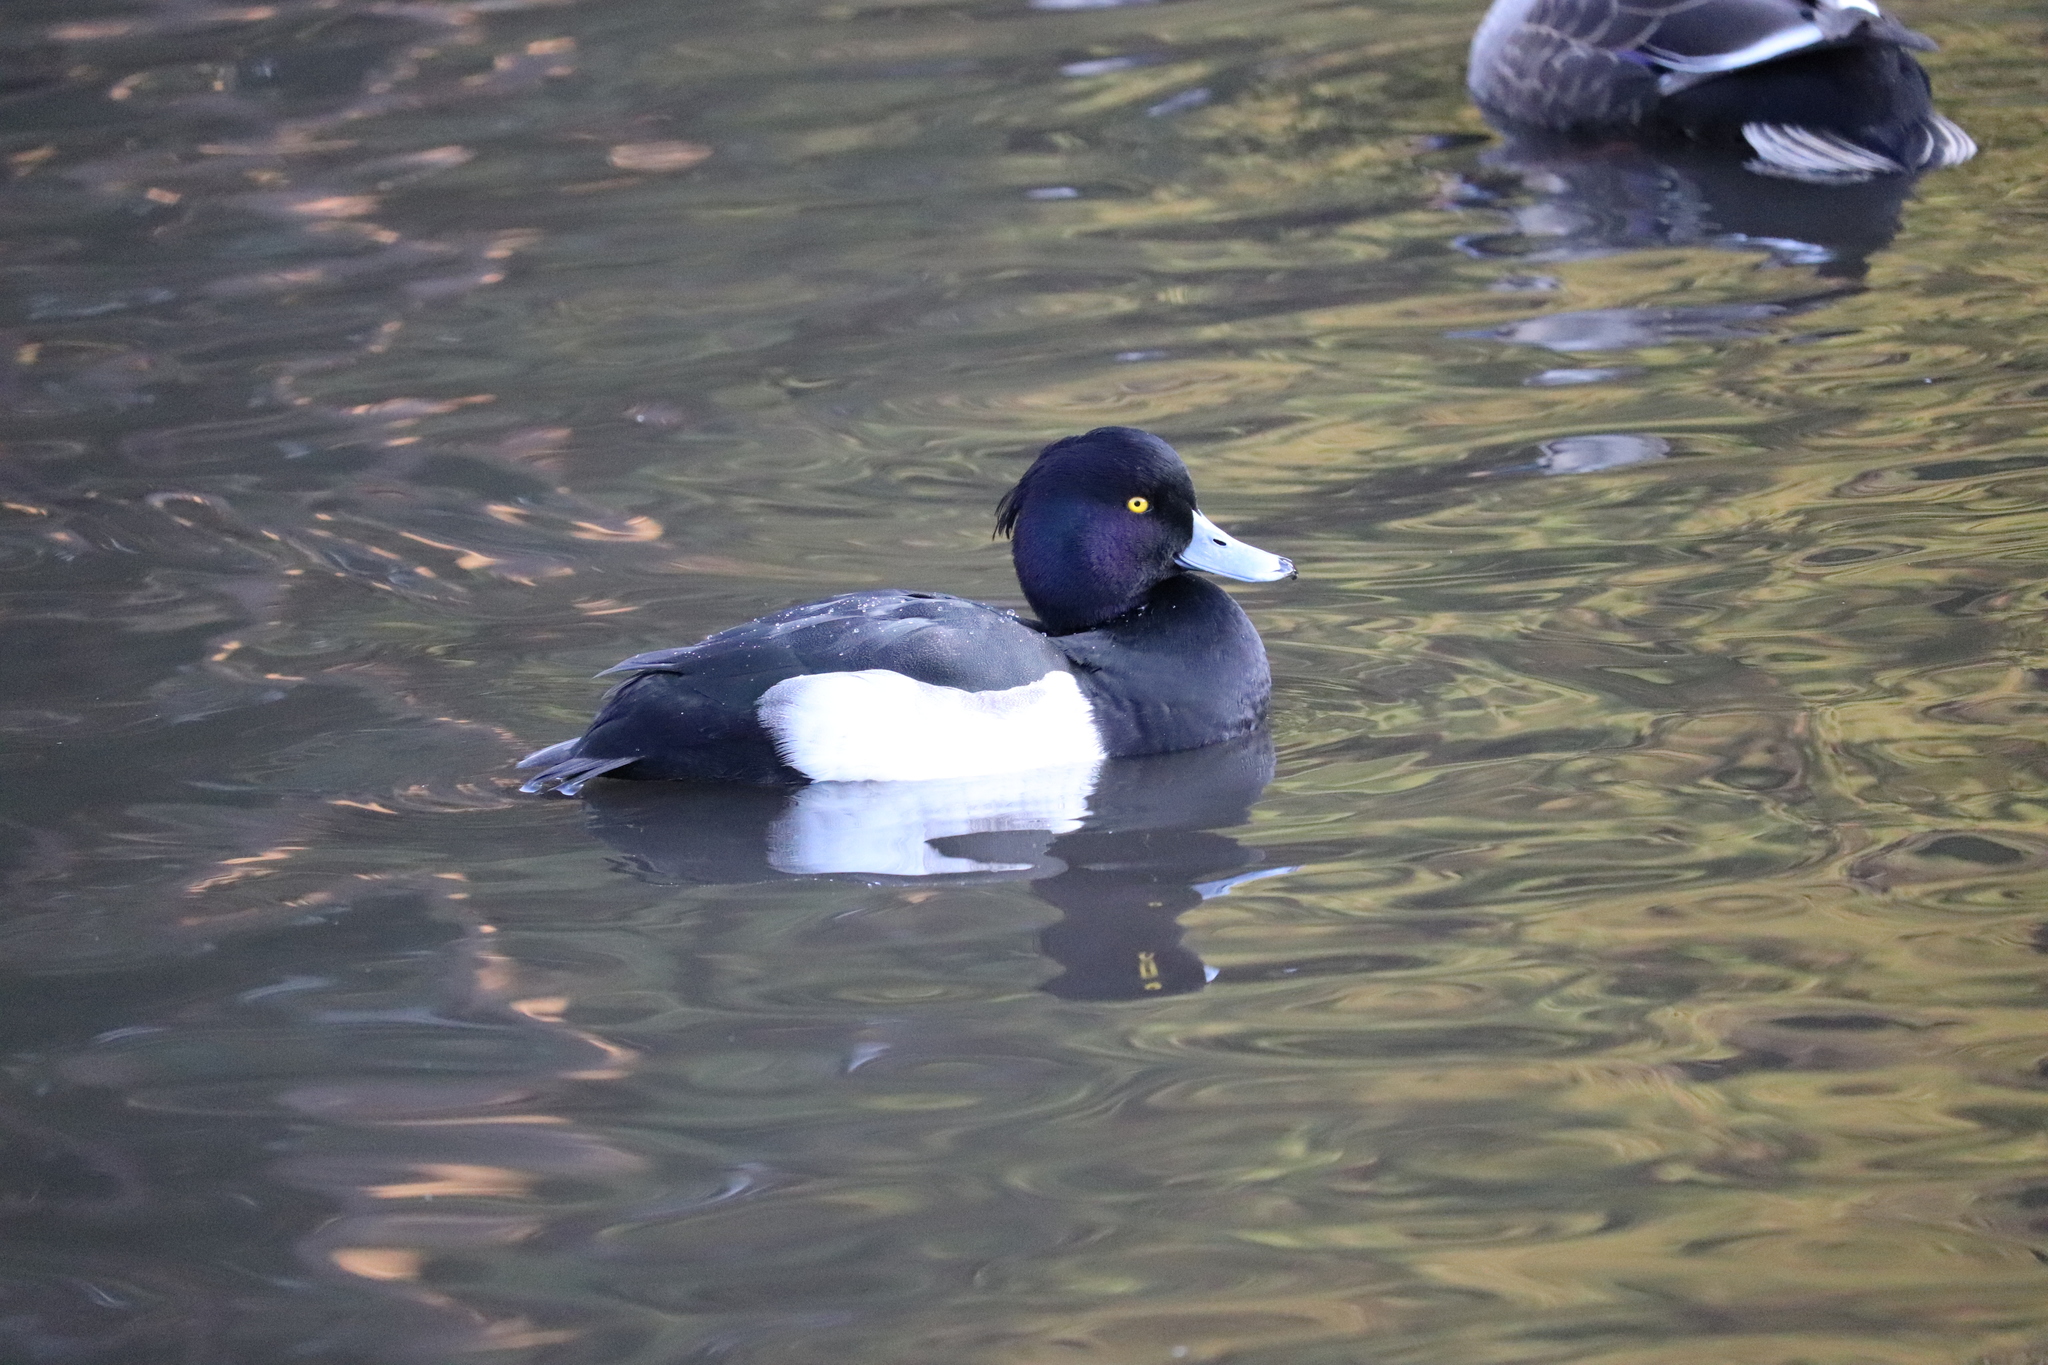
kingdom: Animalia
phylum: Chordata
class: Aves
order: Anseriformes
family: Anatidae
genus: Aythya
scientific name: Aythya fuligula
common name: Tufted duck
